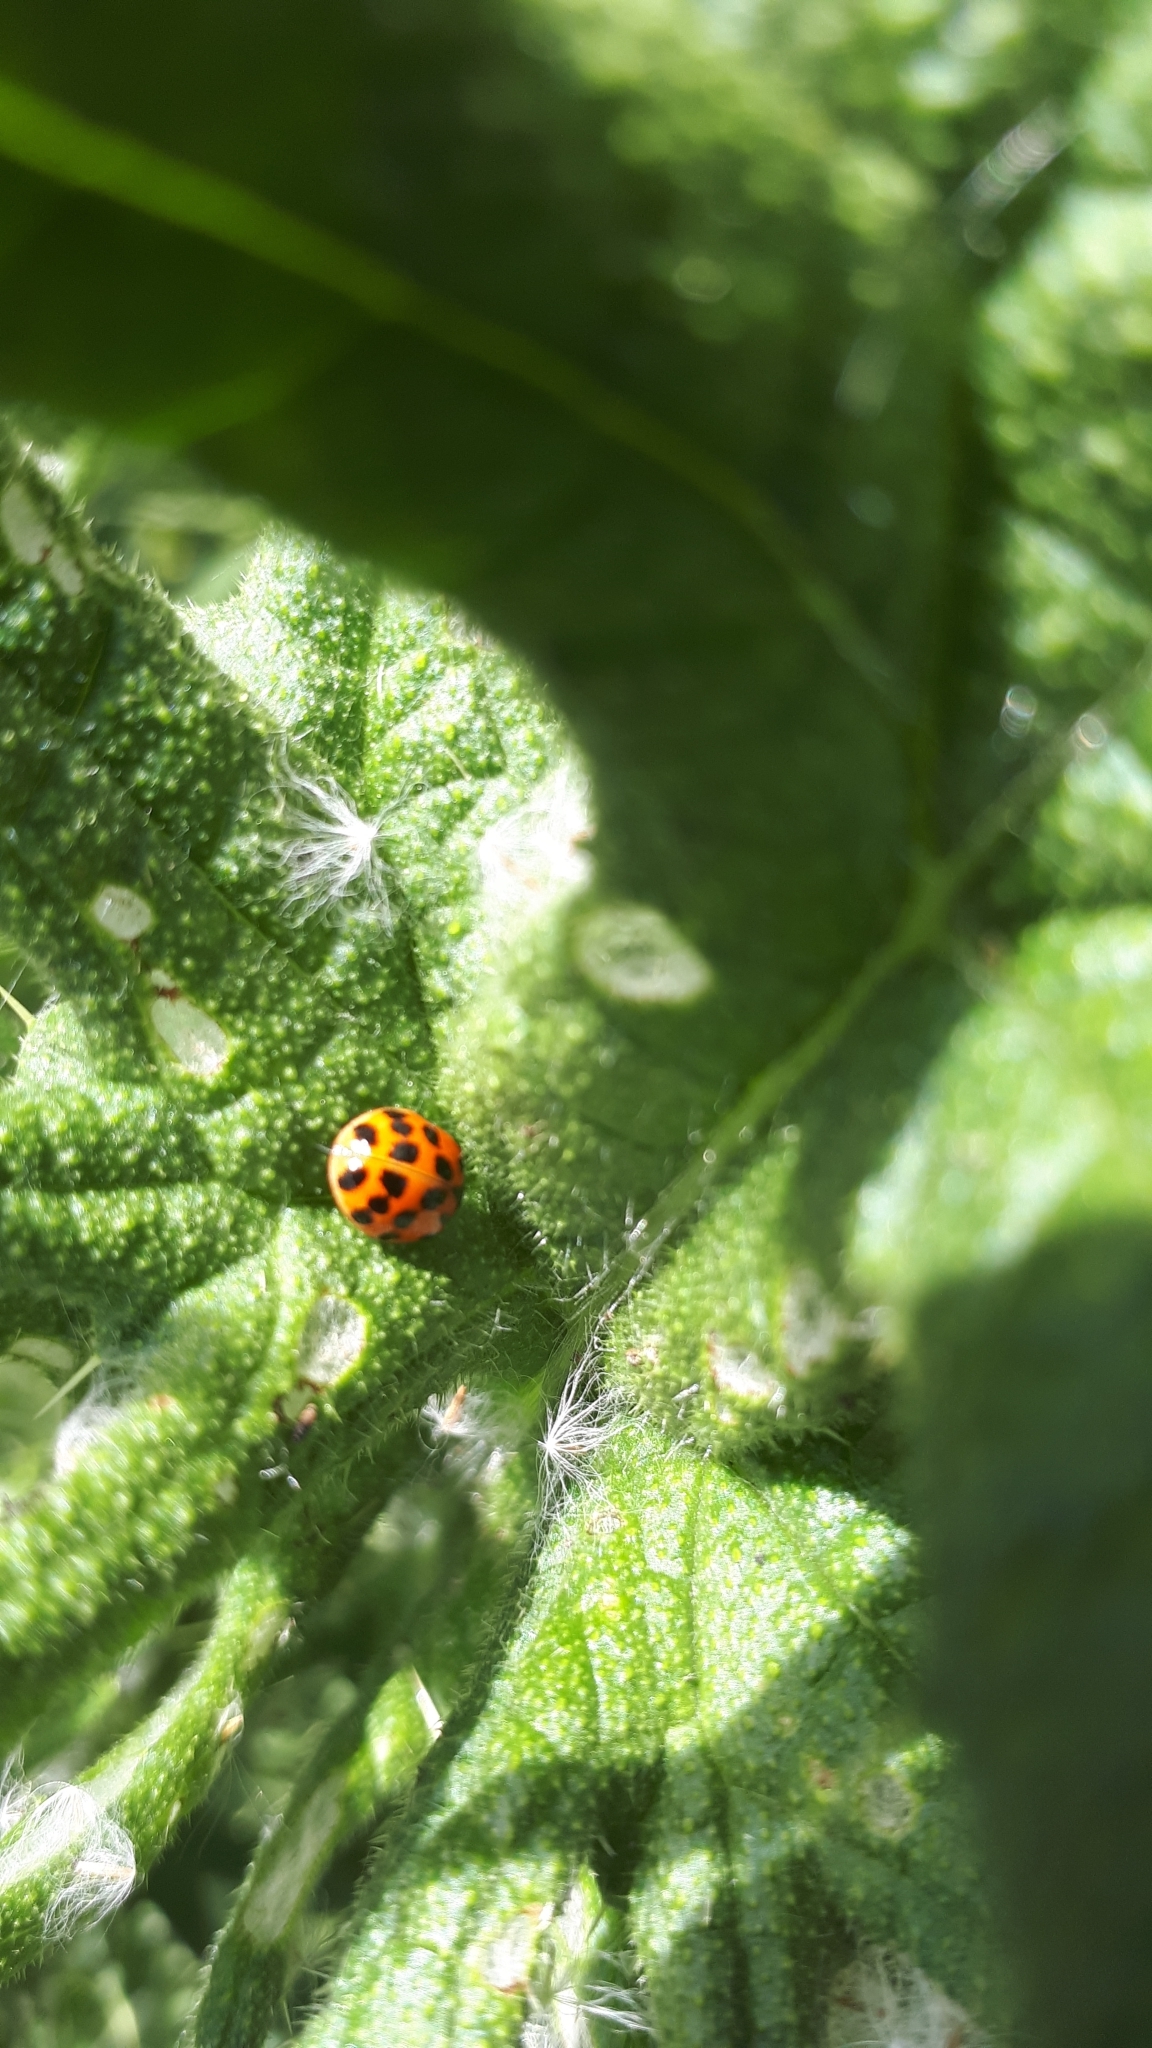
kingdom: Animalia
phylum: Arthropoda
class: Insecta
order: Coleoptera
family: Coccinellidae
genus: Harmonia
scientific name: Harmonia axyridis
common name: Harlequin ladybird
